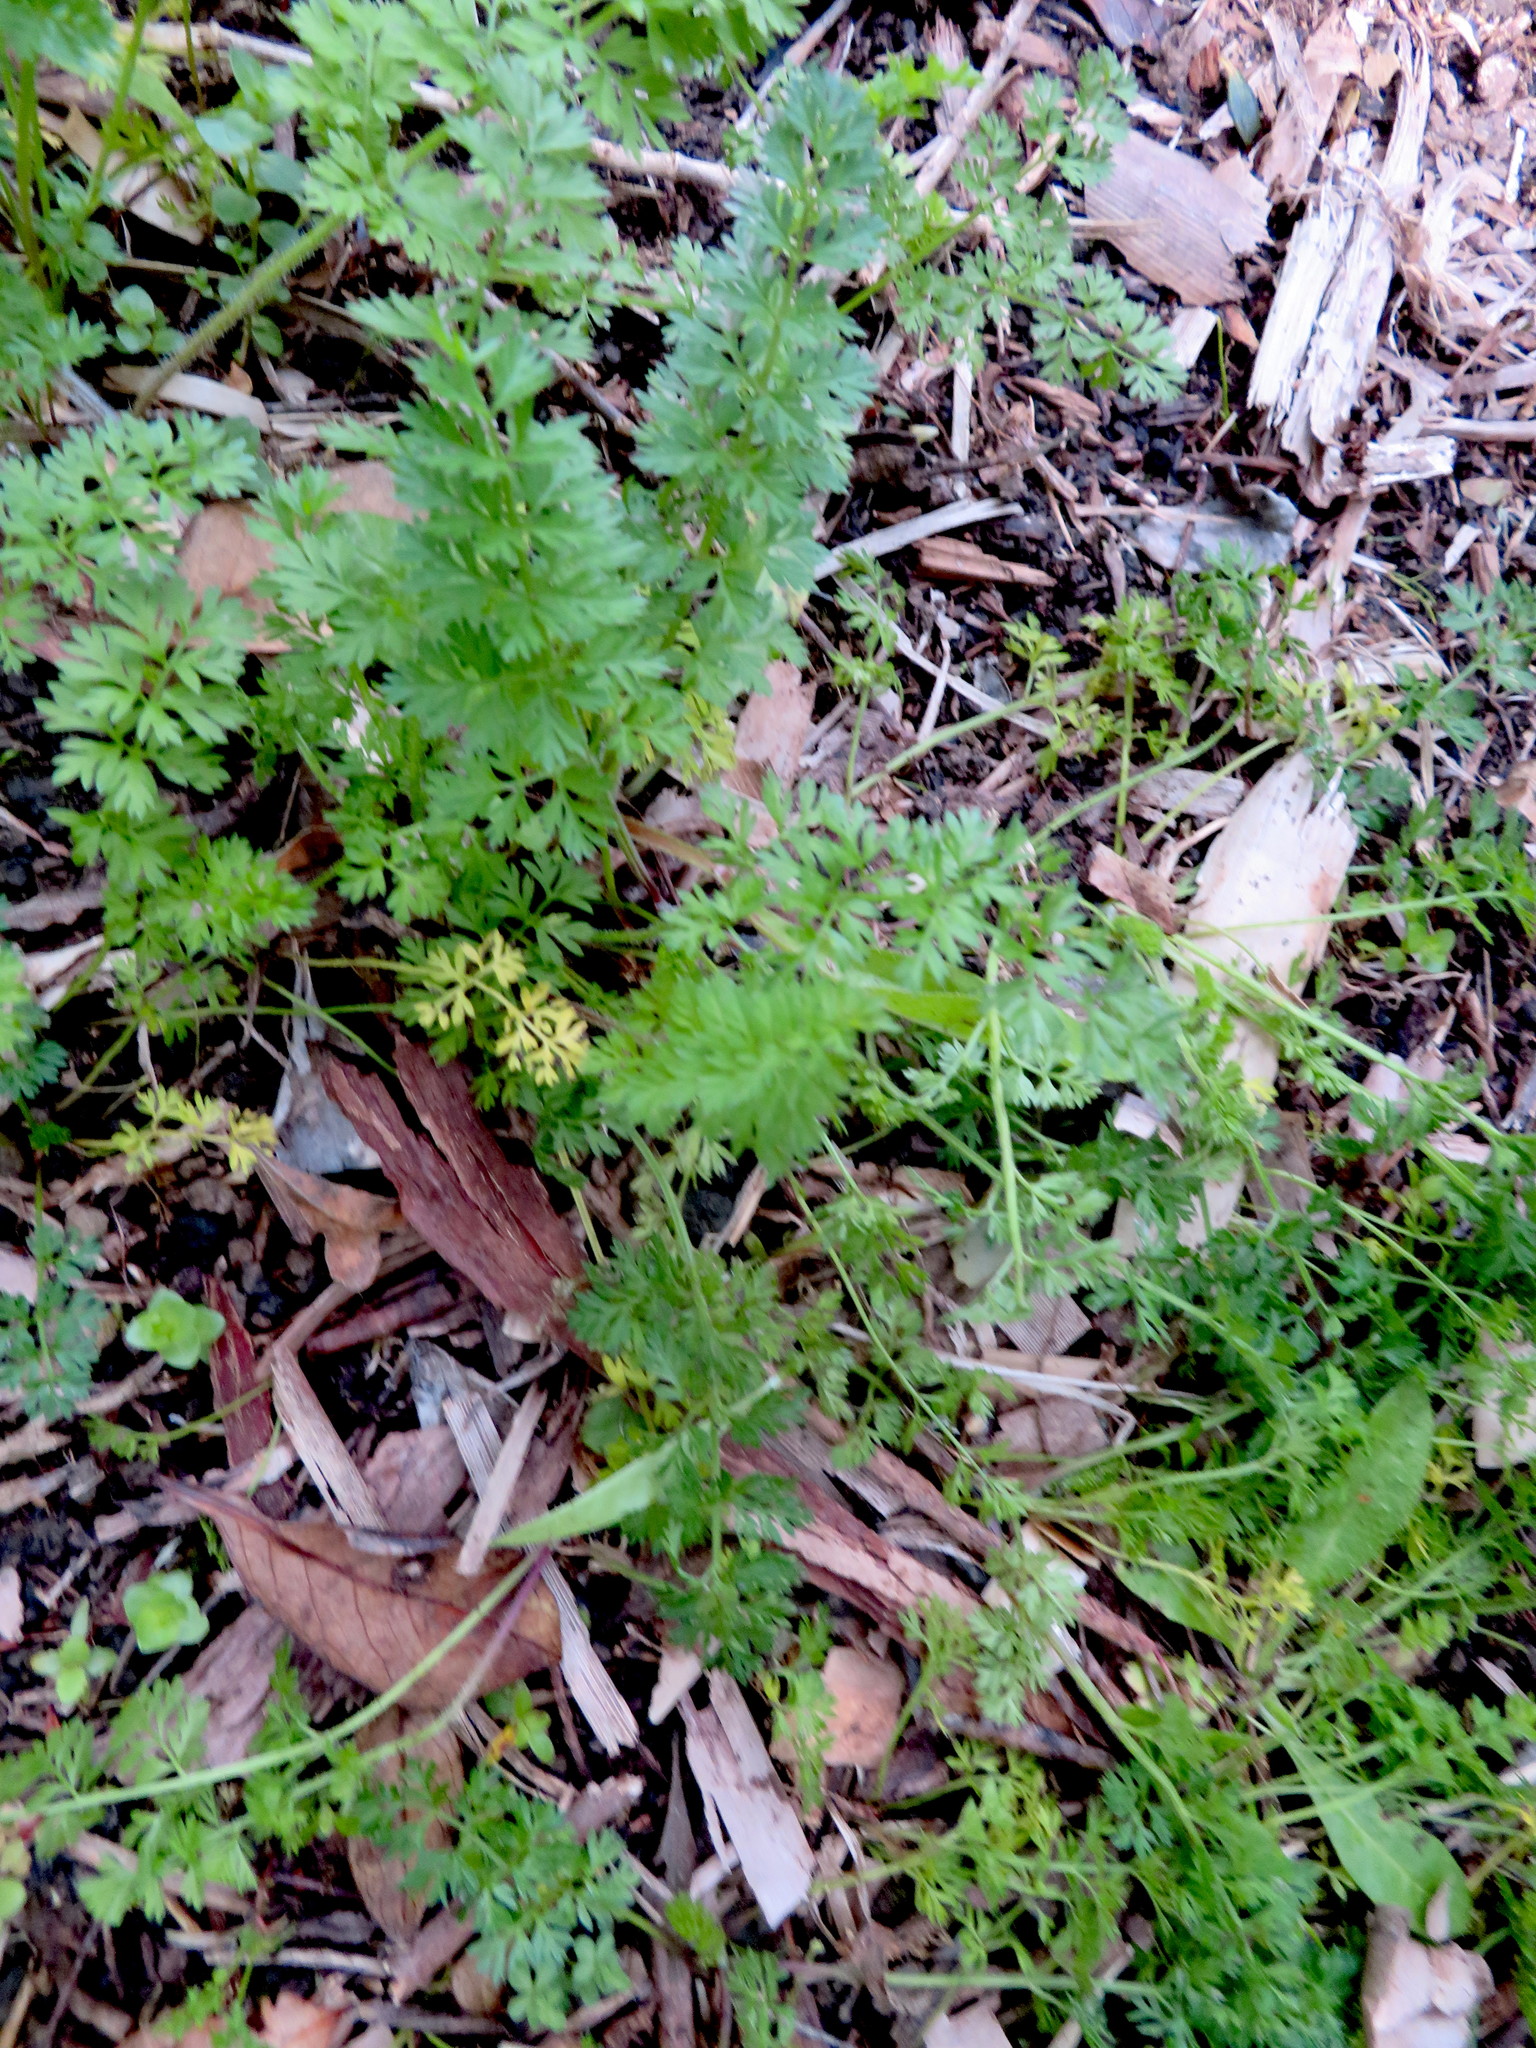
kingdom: Plantae
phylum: Tracheophyta
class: Magnoliopsida
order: Apiales
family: Apiaceae
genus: Daucus
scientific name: Daucus carota
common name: Wild carrot
